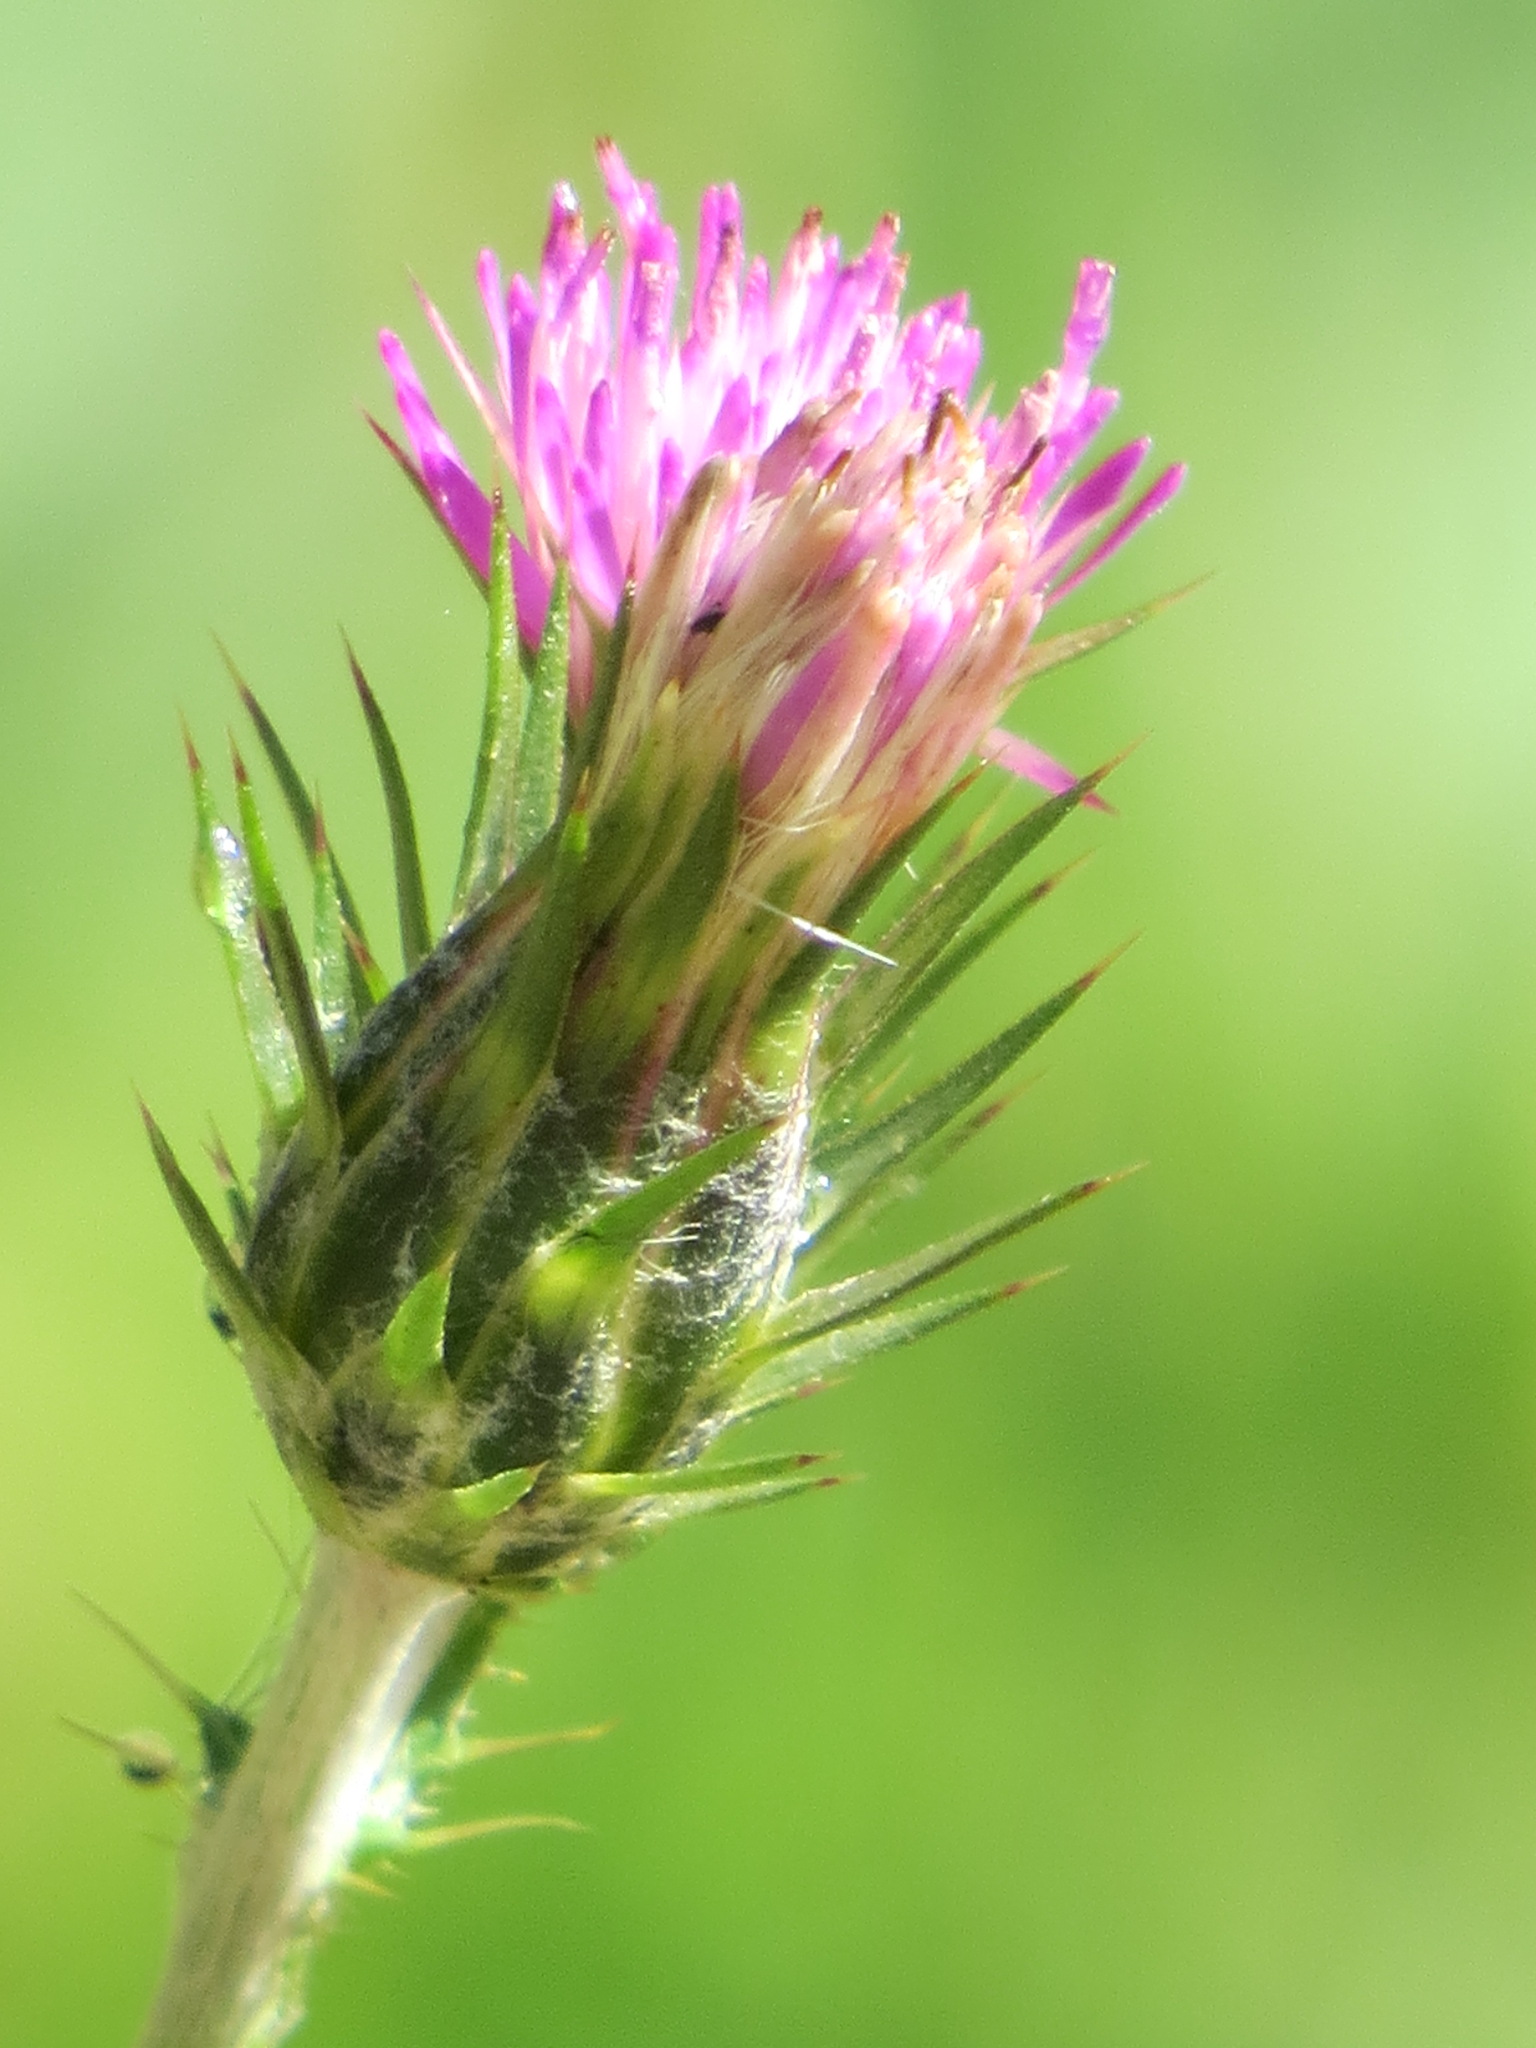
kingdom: Plantae
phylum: Tracheophyta
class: Magnoliopsida
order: Asterales
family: Asteraceae
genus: Carduus
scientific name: Carduus pycnocephalus
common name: Plymouth thistle
